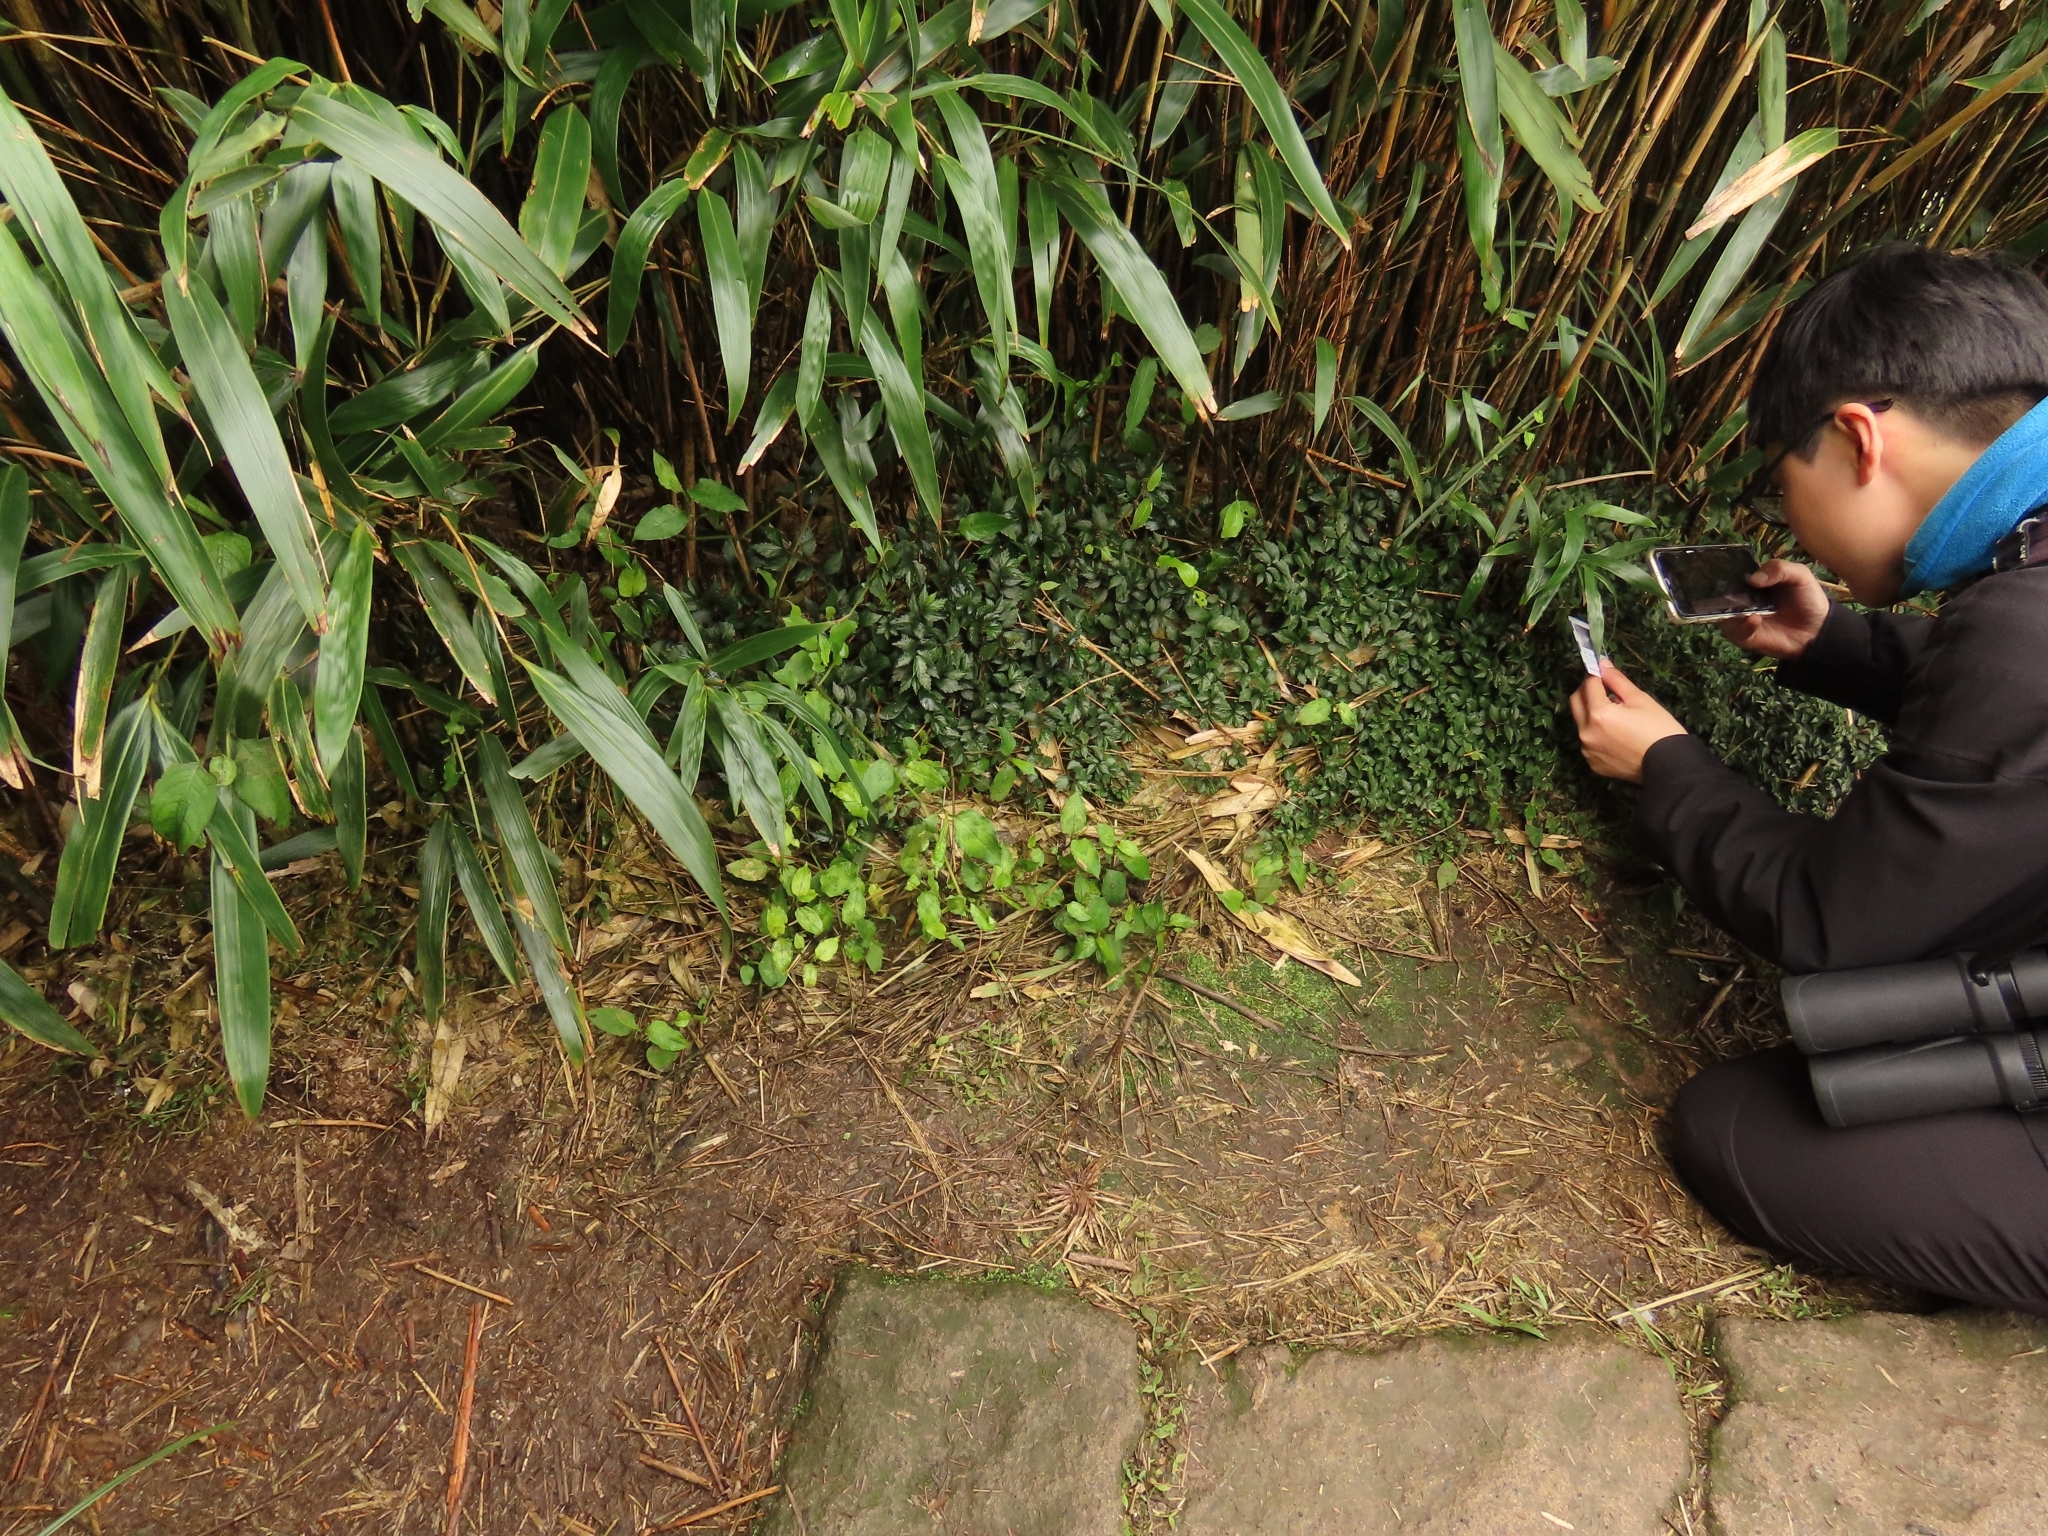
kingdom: Plantae
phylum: Tracheophyta
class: Magnoliopsida
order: Rosales
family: Urticaceae
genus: Elatostema
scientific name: Elatostema radicans
